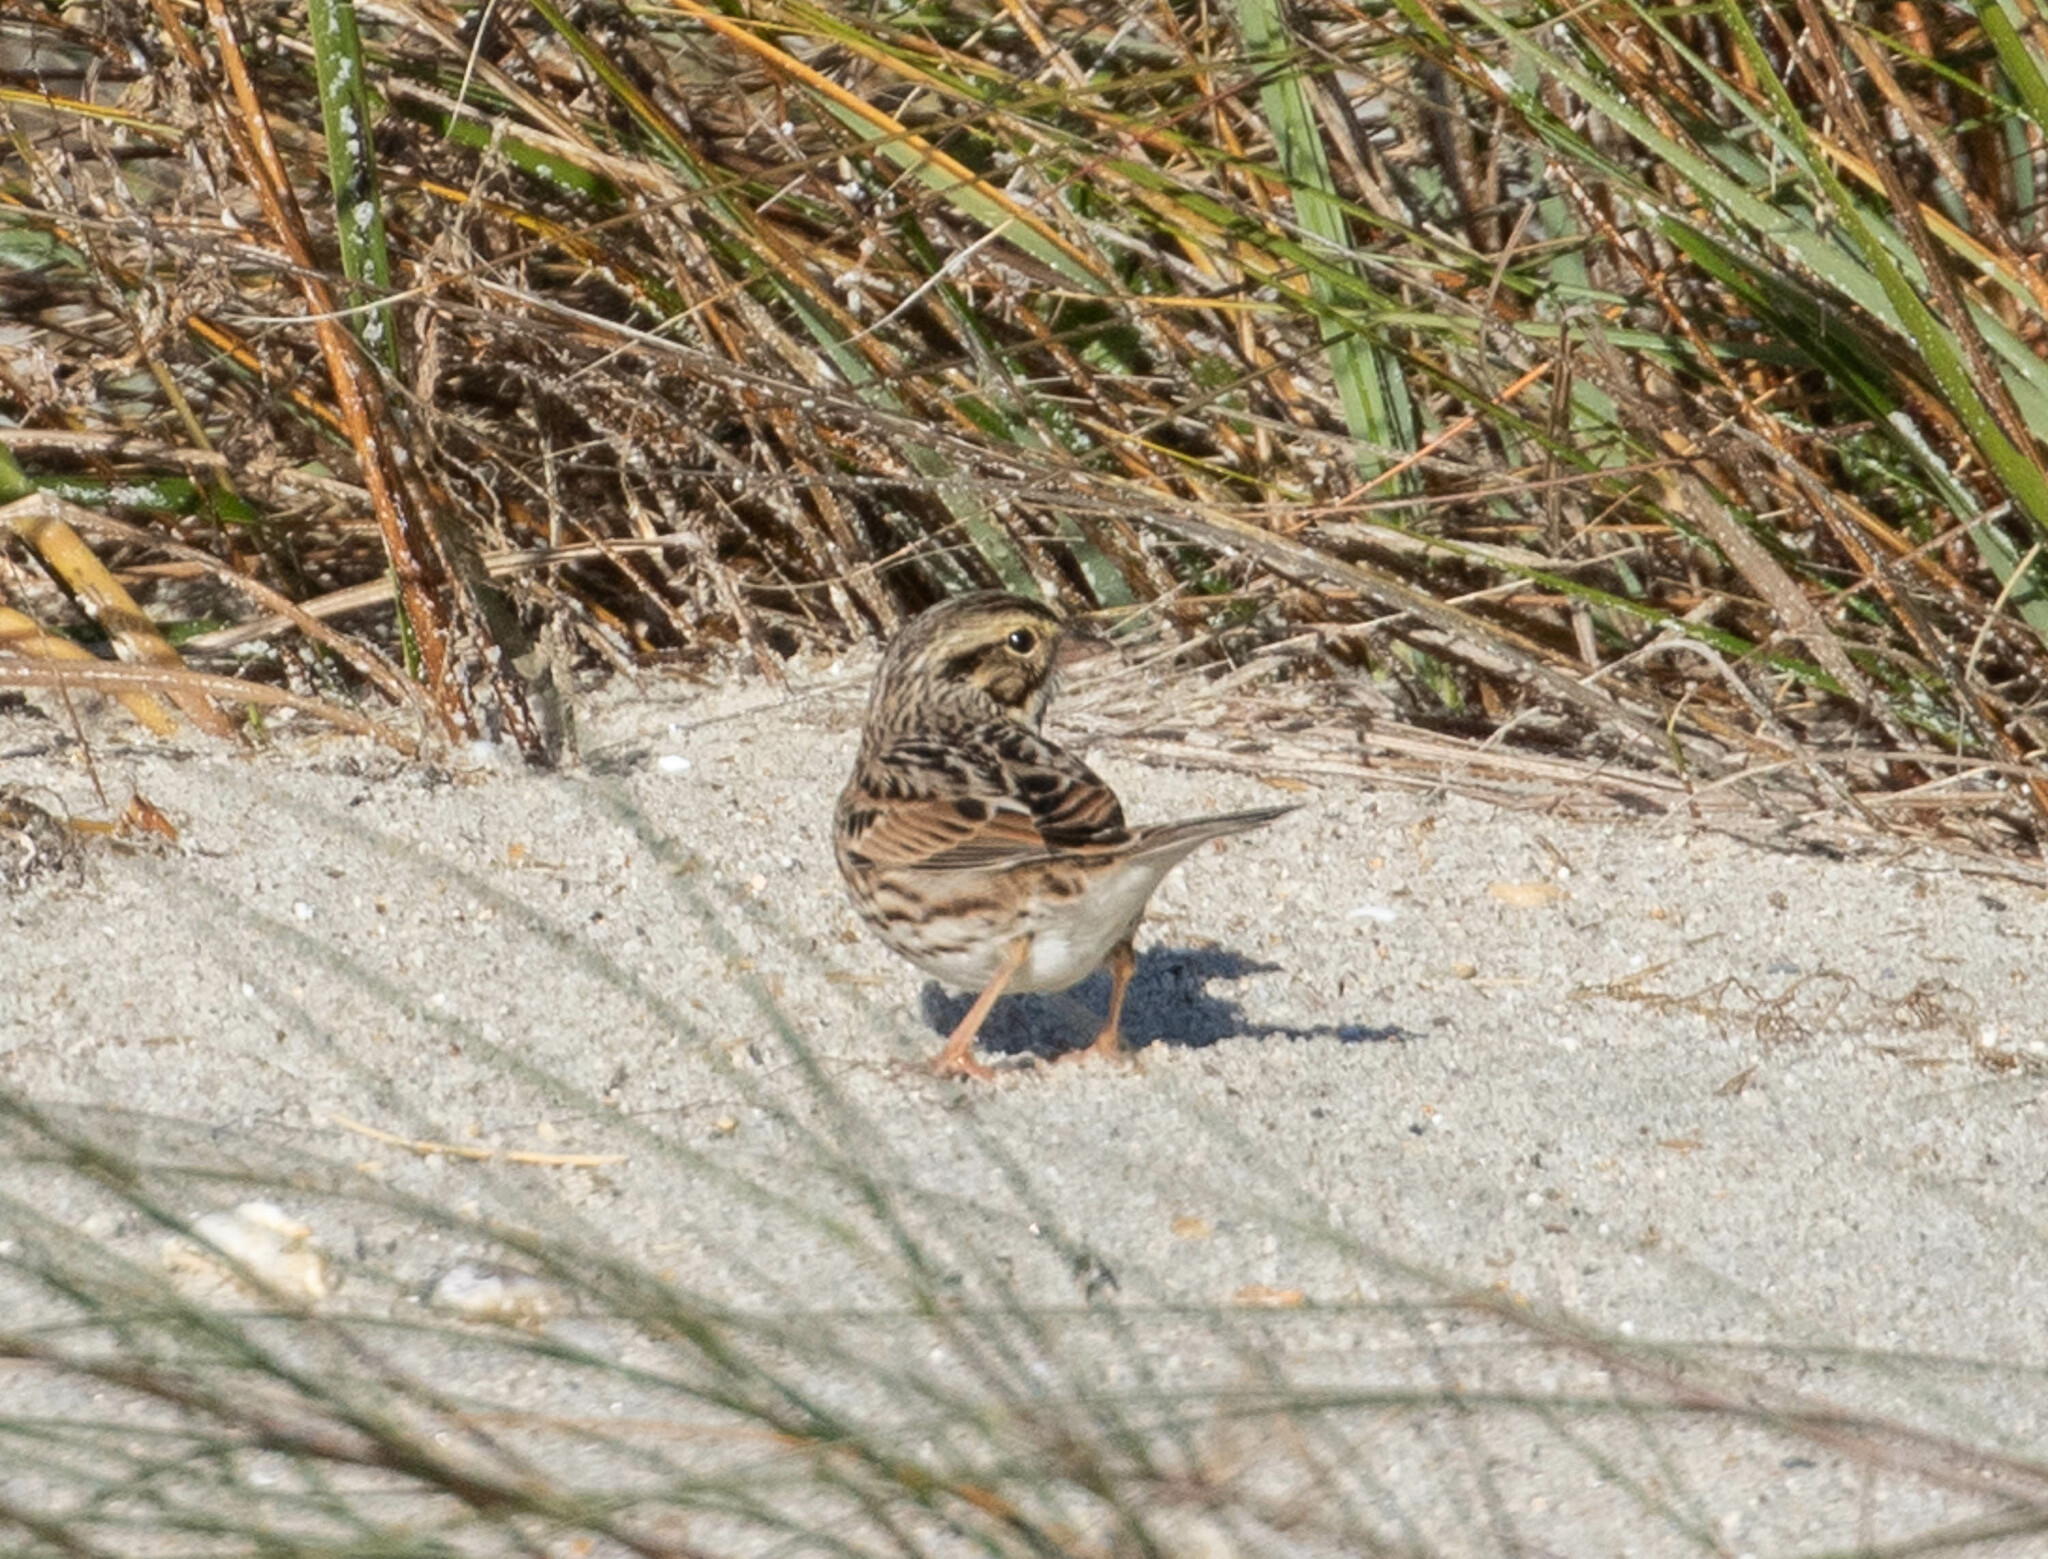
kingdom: Animalia
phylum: Chordata
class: Aves
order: Passeriformes
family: Passerellidae
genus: Passerculus
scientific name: Passerculus sandwichensis
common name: Savannah sparrow
